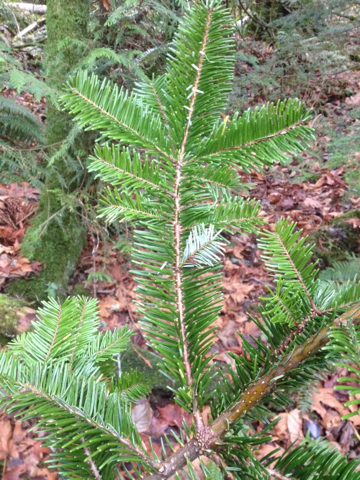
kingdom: Plantae
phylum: Tracheophyta
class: Pinopsida
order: Pinales
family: Pinaceae
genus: Abies
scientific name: Abies grandis
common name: Giant fir
